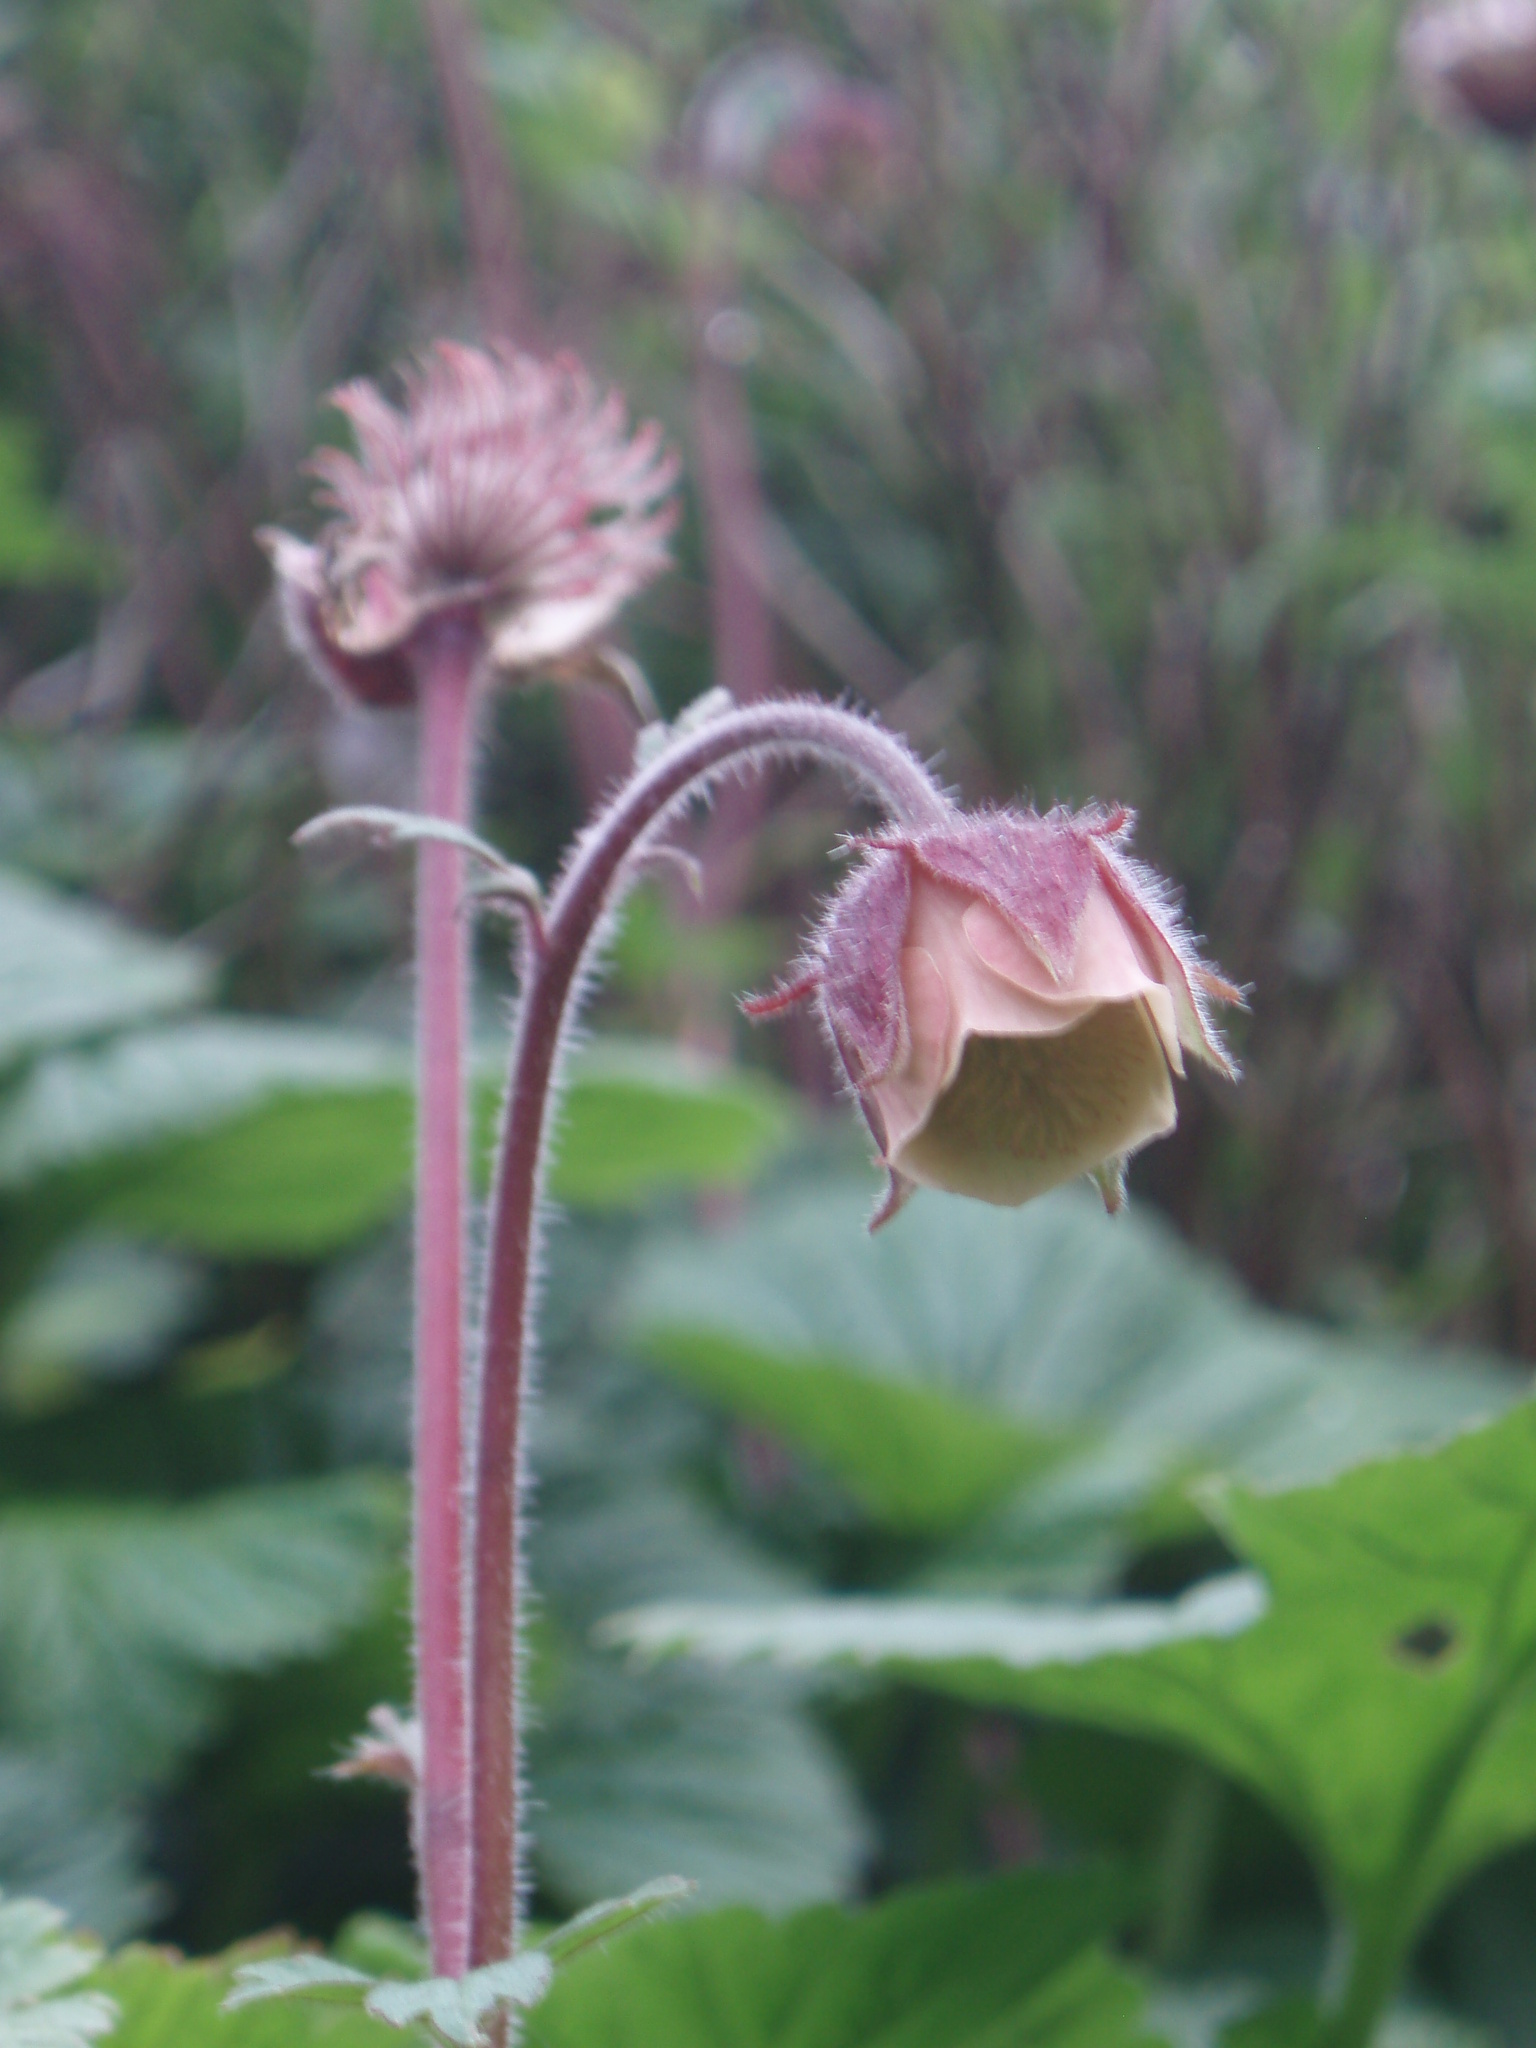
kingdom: Plantae
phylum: Tracheophyta
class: Magnoliopsida
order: Rosales
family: Rosaceae
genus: Geum
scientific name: Geum rivale
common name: Water avens
